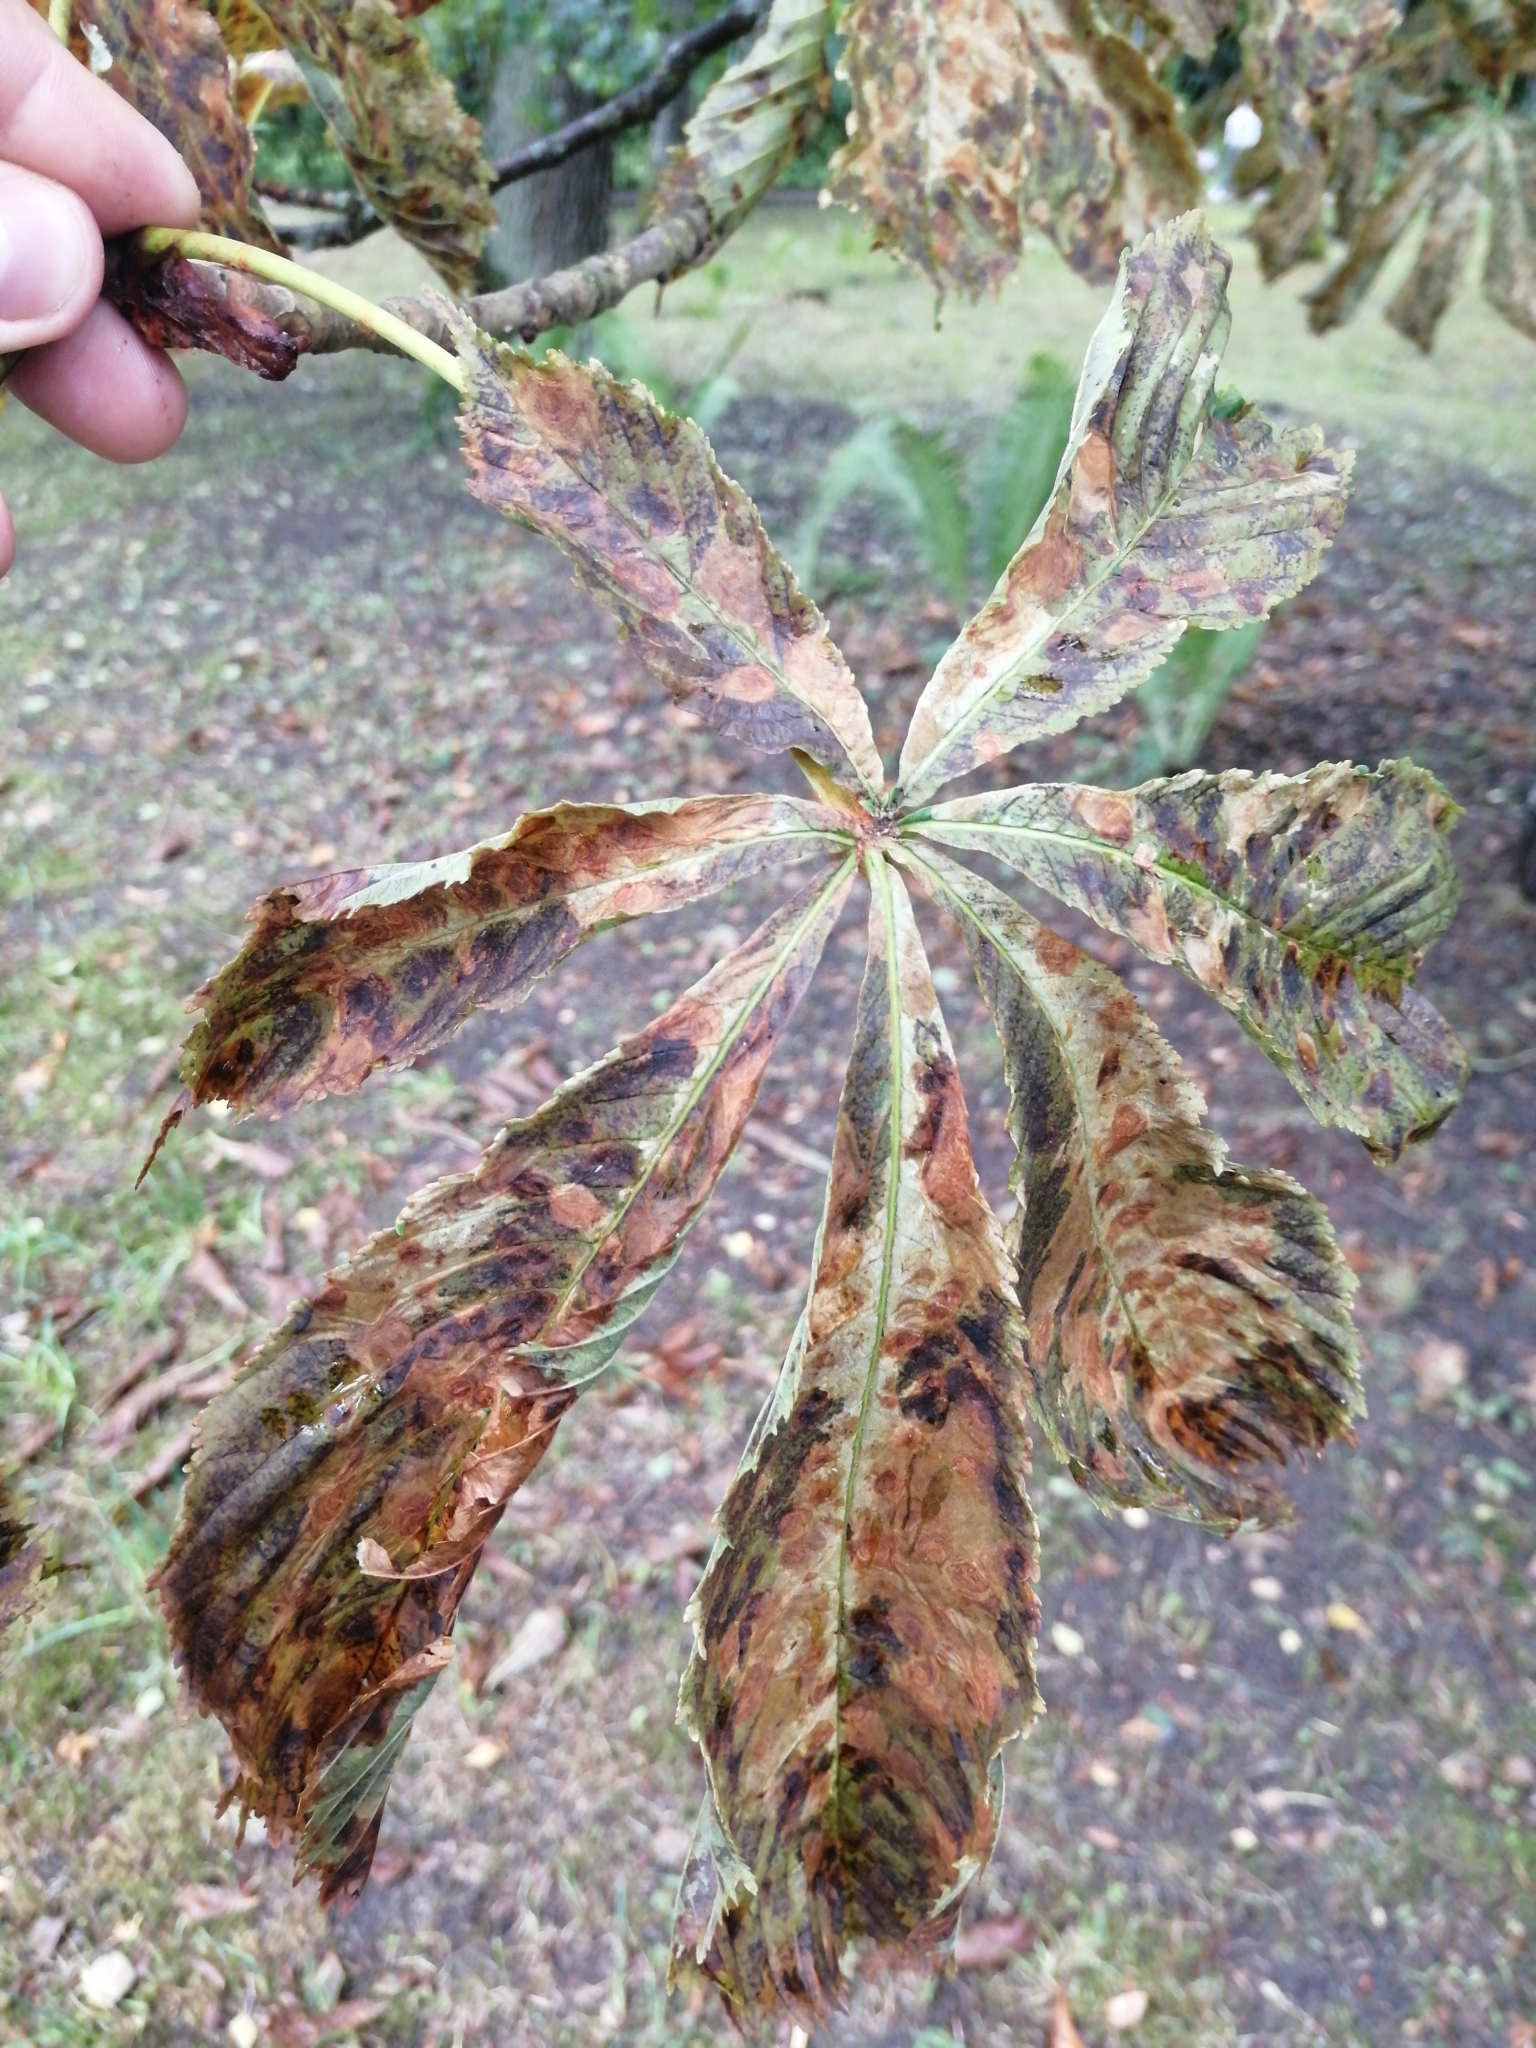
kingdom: Plantae
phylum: Tracheophyta
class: Magnoliopsida
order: Sapindales
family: Sapindaceae
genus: Aesculus
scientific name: Aesculus hippocastanum
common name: Horse-chestnut
